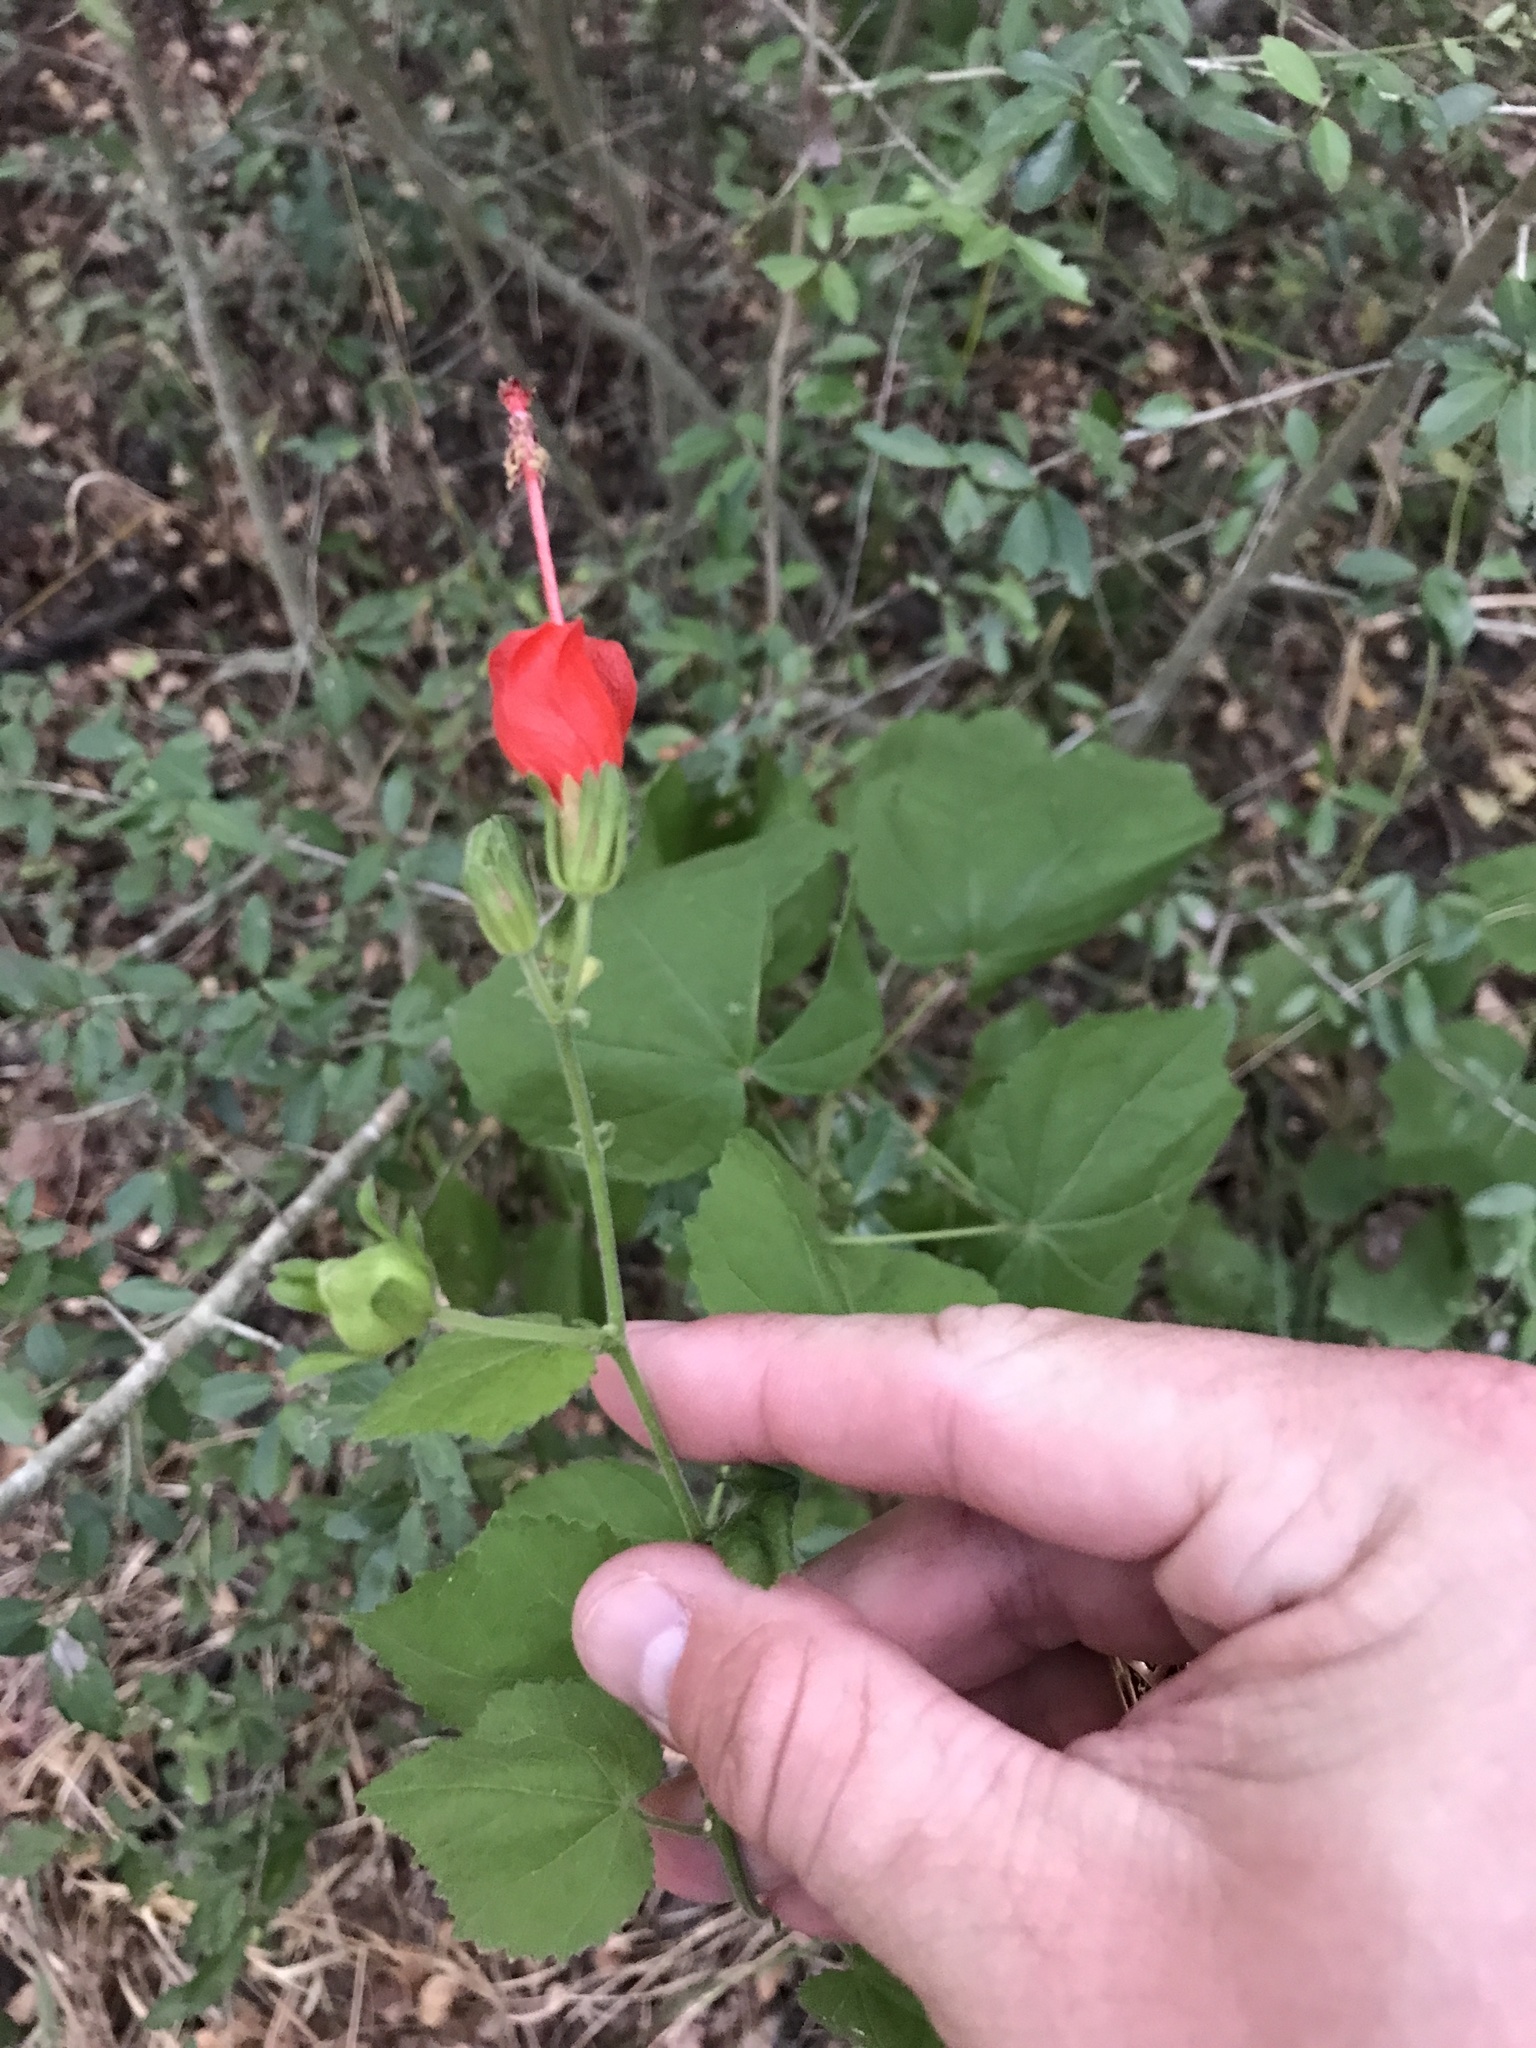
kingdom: Plantae
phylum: Tracheophyta
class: Magnoliopsida
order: Malvales
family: Malvaceae
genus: Malvaviscus
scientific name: Malvaviscus arboreus
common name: Wax mallow
